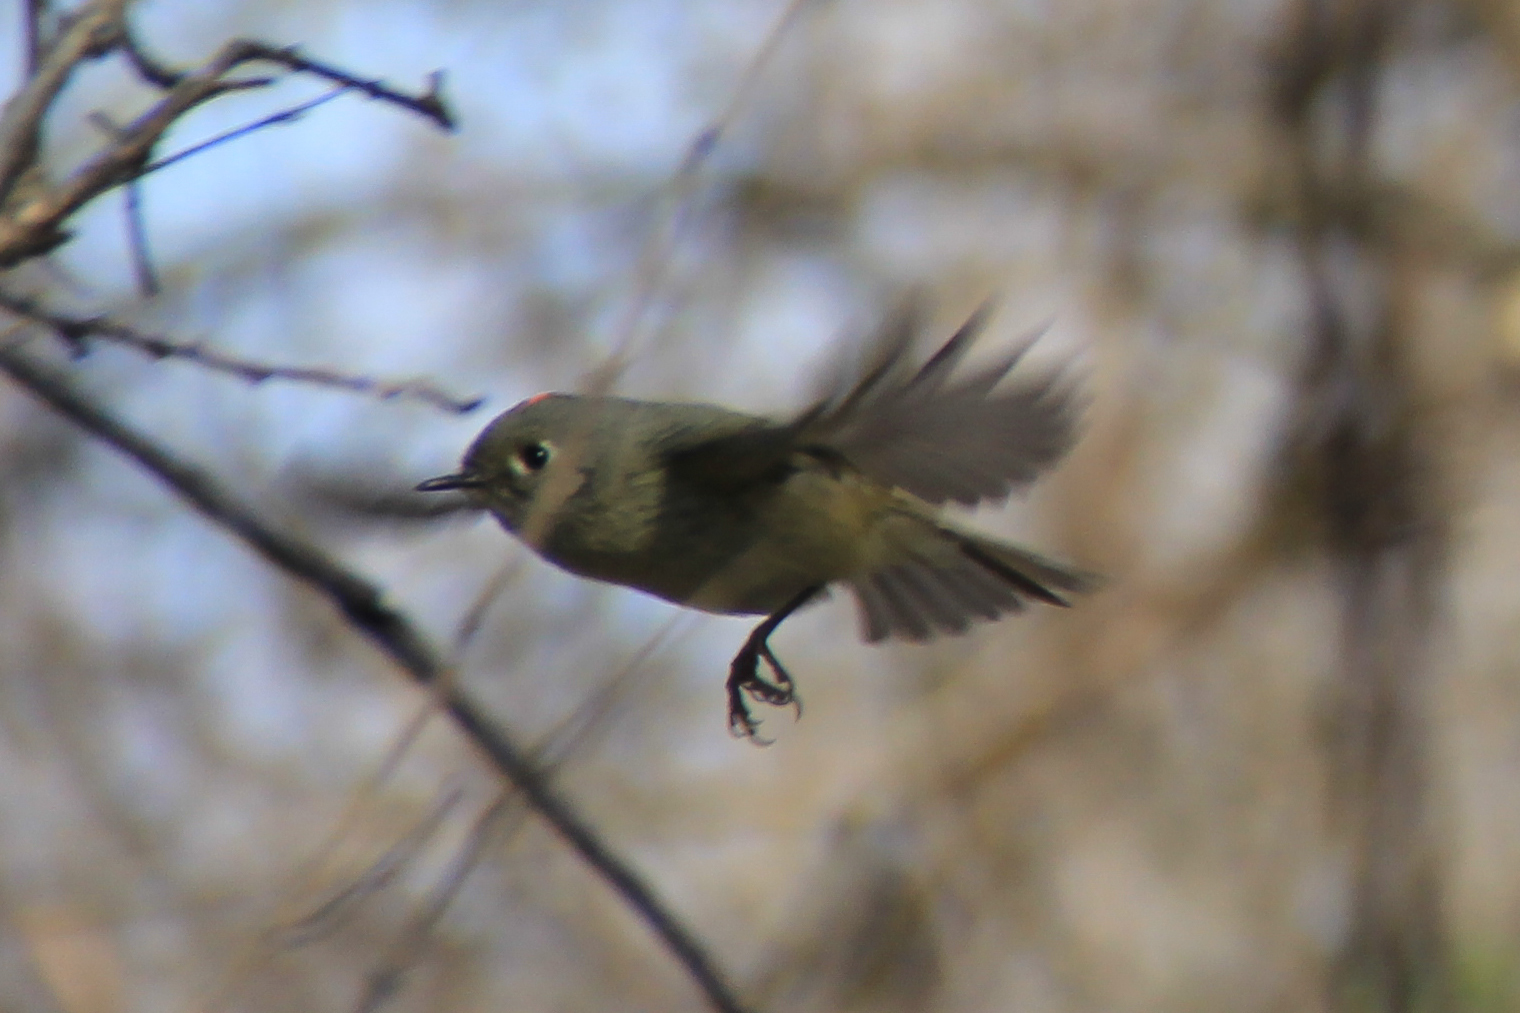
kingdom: Animalia
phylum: Chordata
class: Aves
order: Passeriformes
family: Regulidae
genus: Regulus
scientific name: Regulus calendula
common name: Ruby-crowned kinglet
